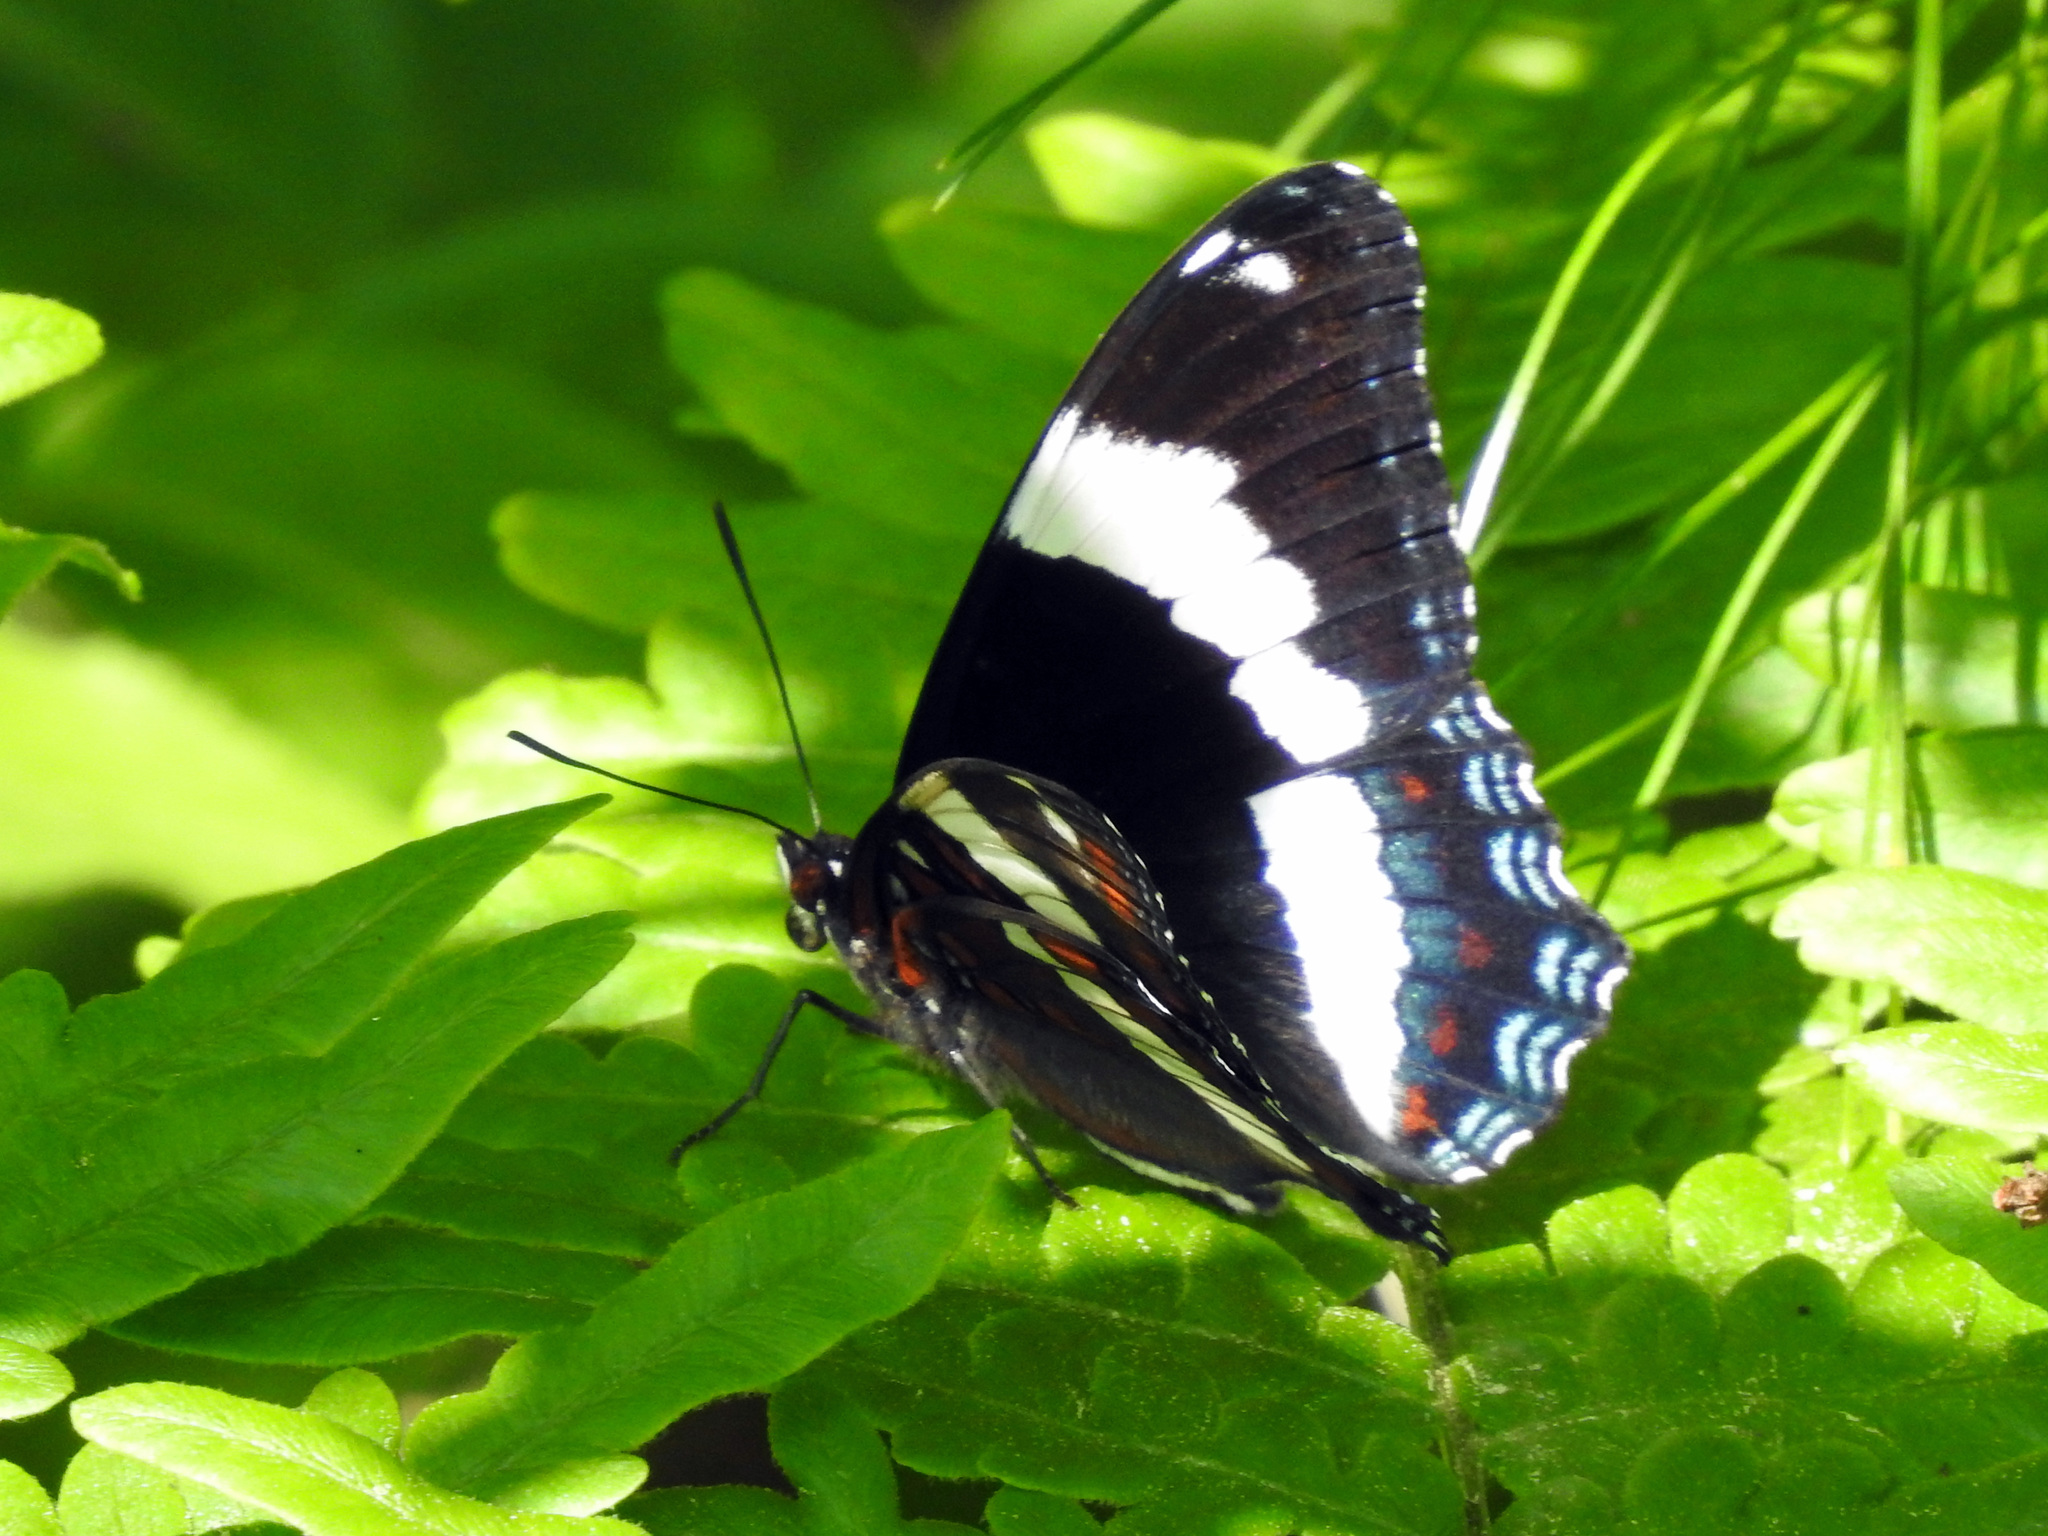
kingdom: Animalia
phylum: Arthropoda
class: Insecta
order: Lepidoptera
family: Nymphalidae
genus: Limenitis
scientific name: Limenitis arthemis
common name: Red-spotted admiral
